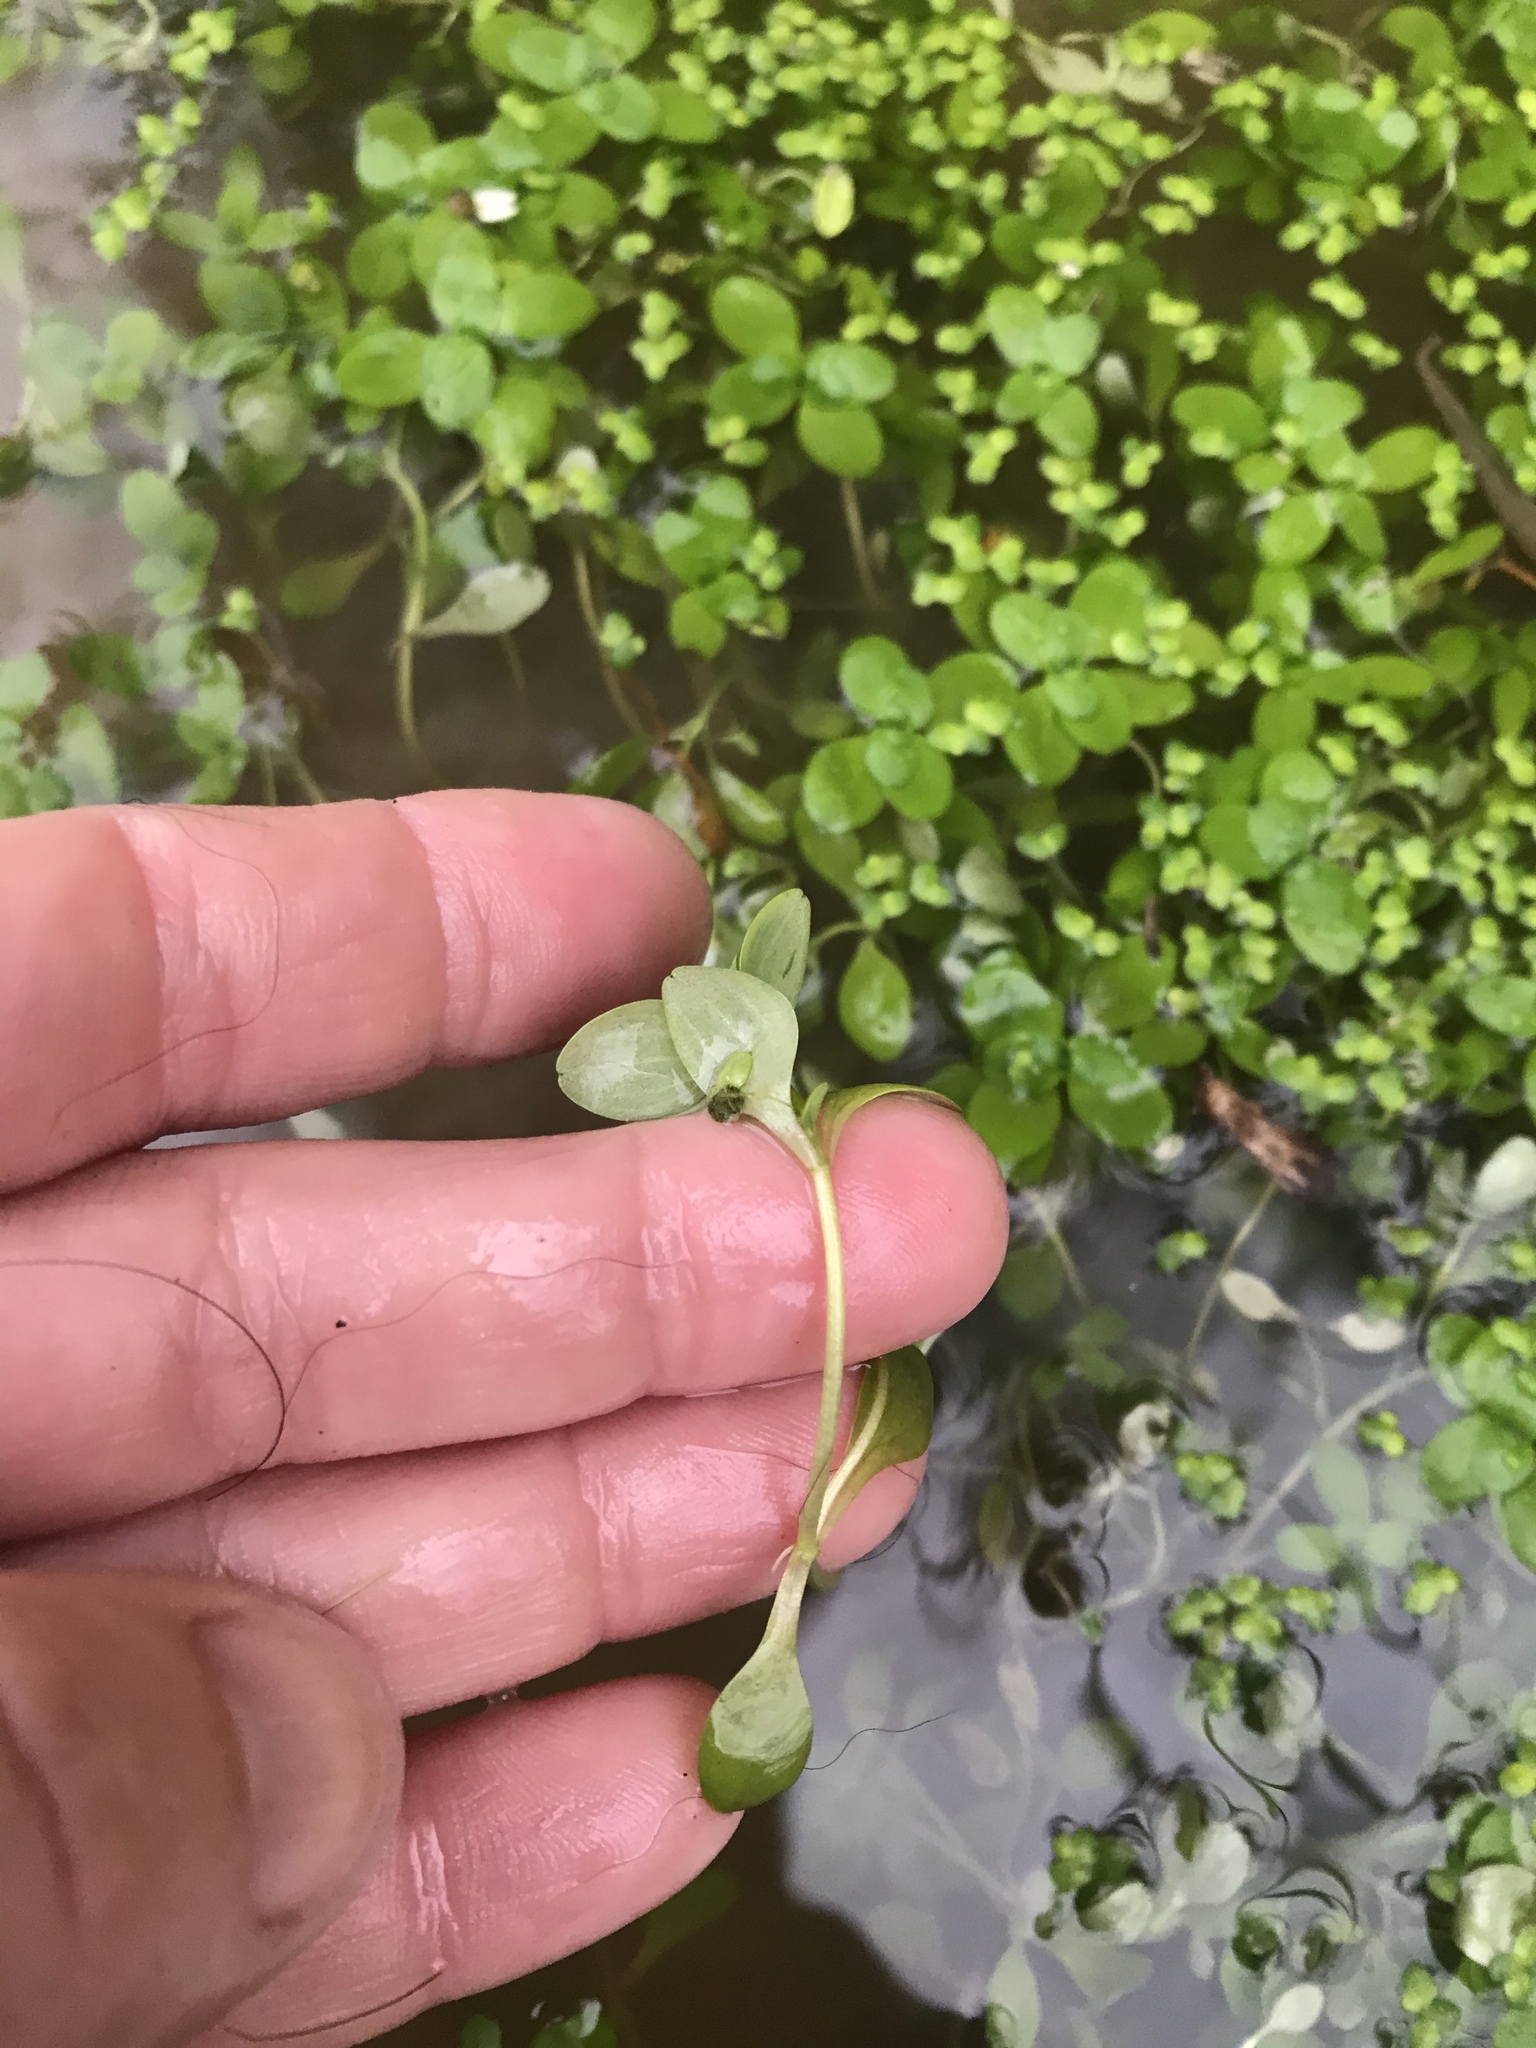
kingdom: Plantae
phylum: Tracheophyta
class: Magnoliopsida
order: Lamiales
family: Plantaginaceae
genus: Callitriche
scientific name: Callitriche stagnalis
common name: Common water-starwort
